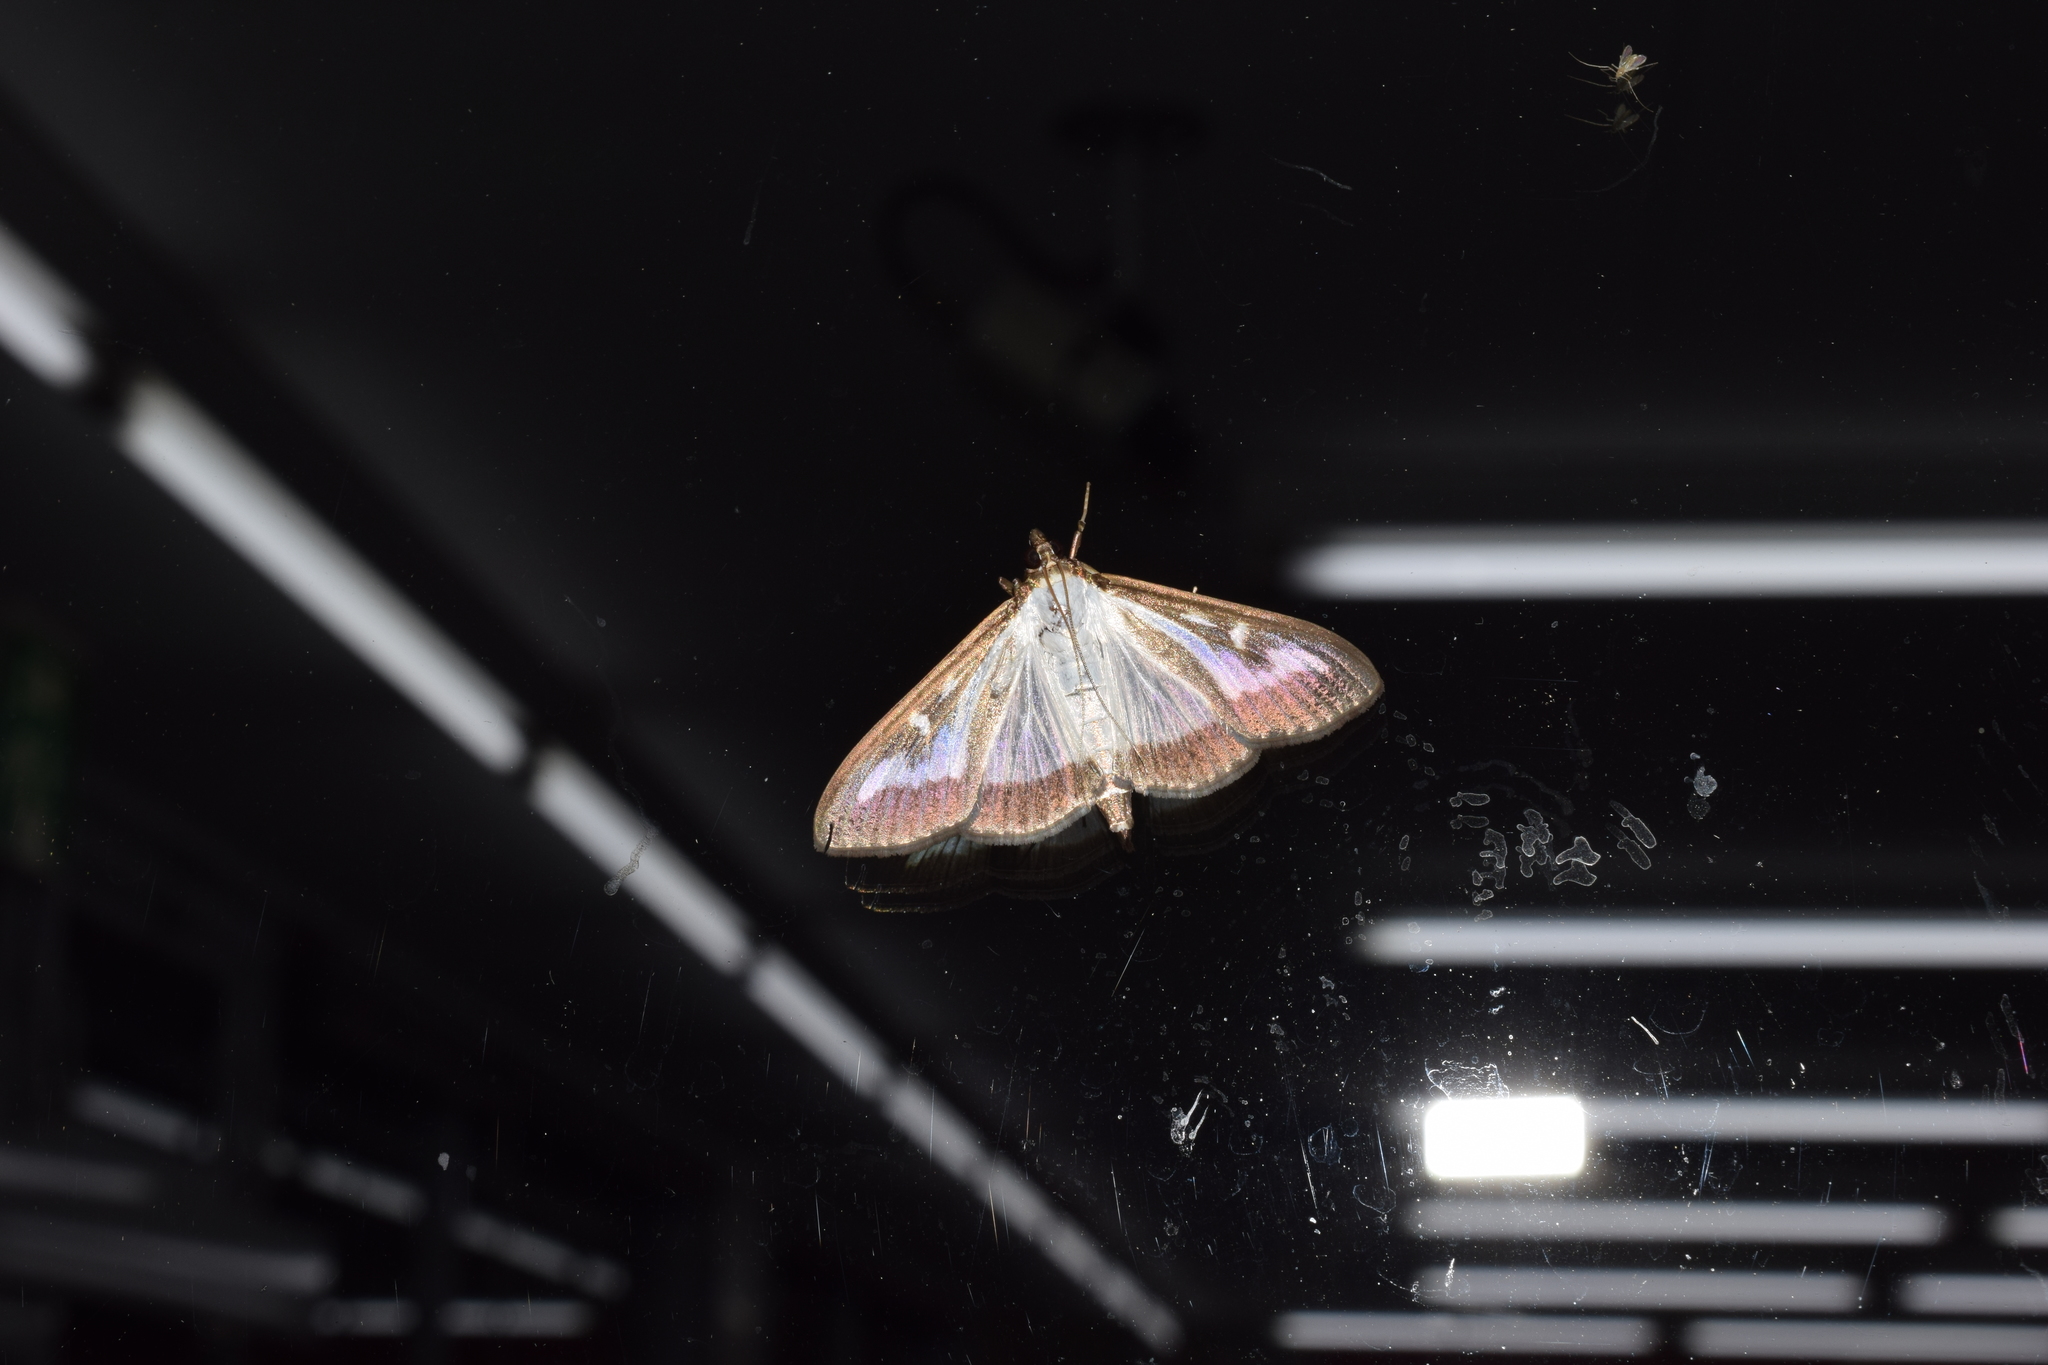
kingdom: Animalia
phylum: Arthropoda
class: Insecta
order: Lepidoptera
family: Crambidae
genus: Cydalima
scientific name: Cydalima perspectalis
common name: Box tree moth
